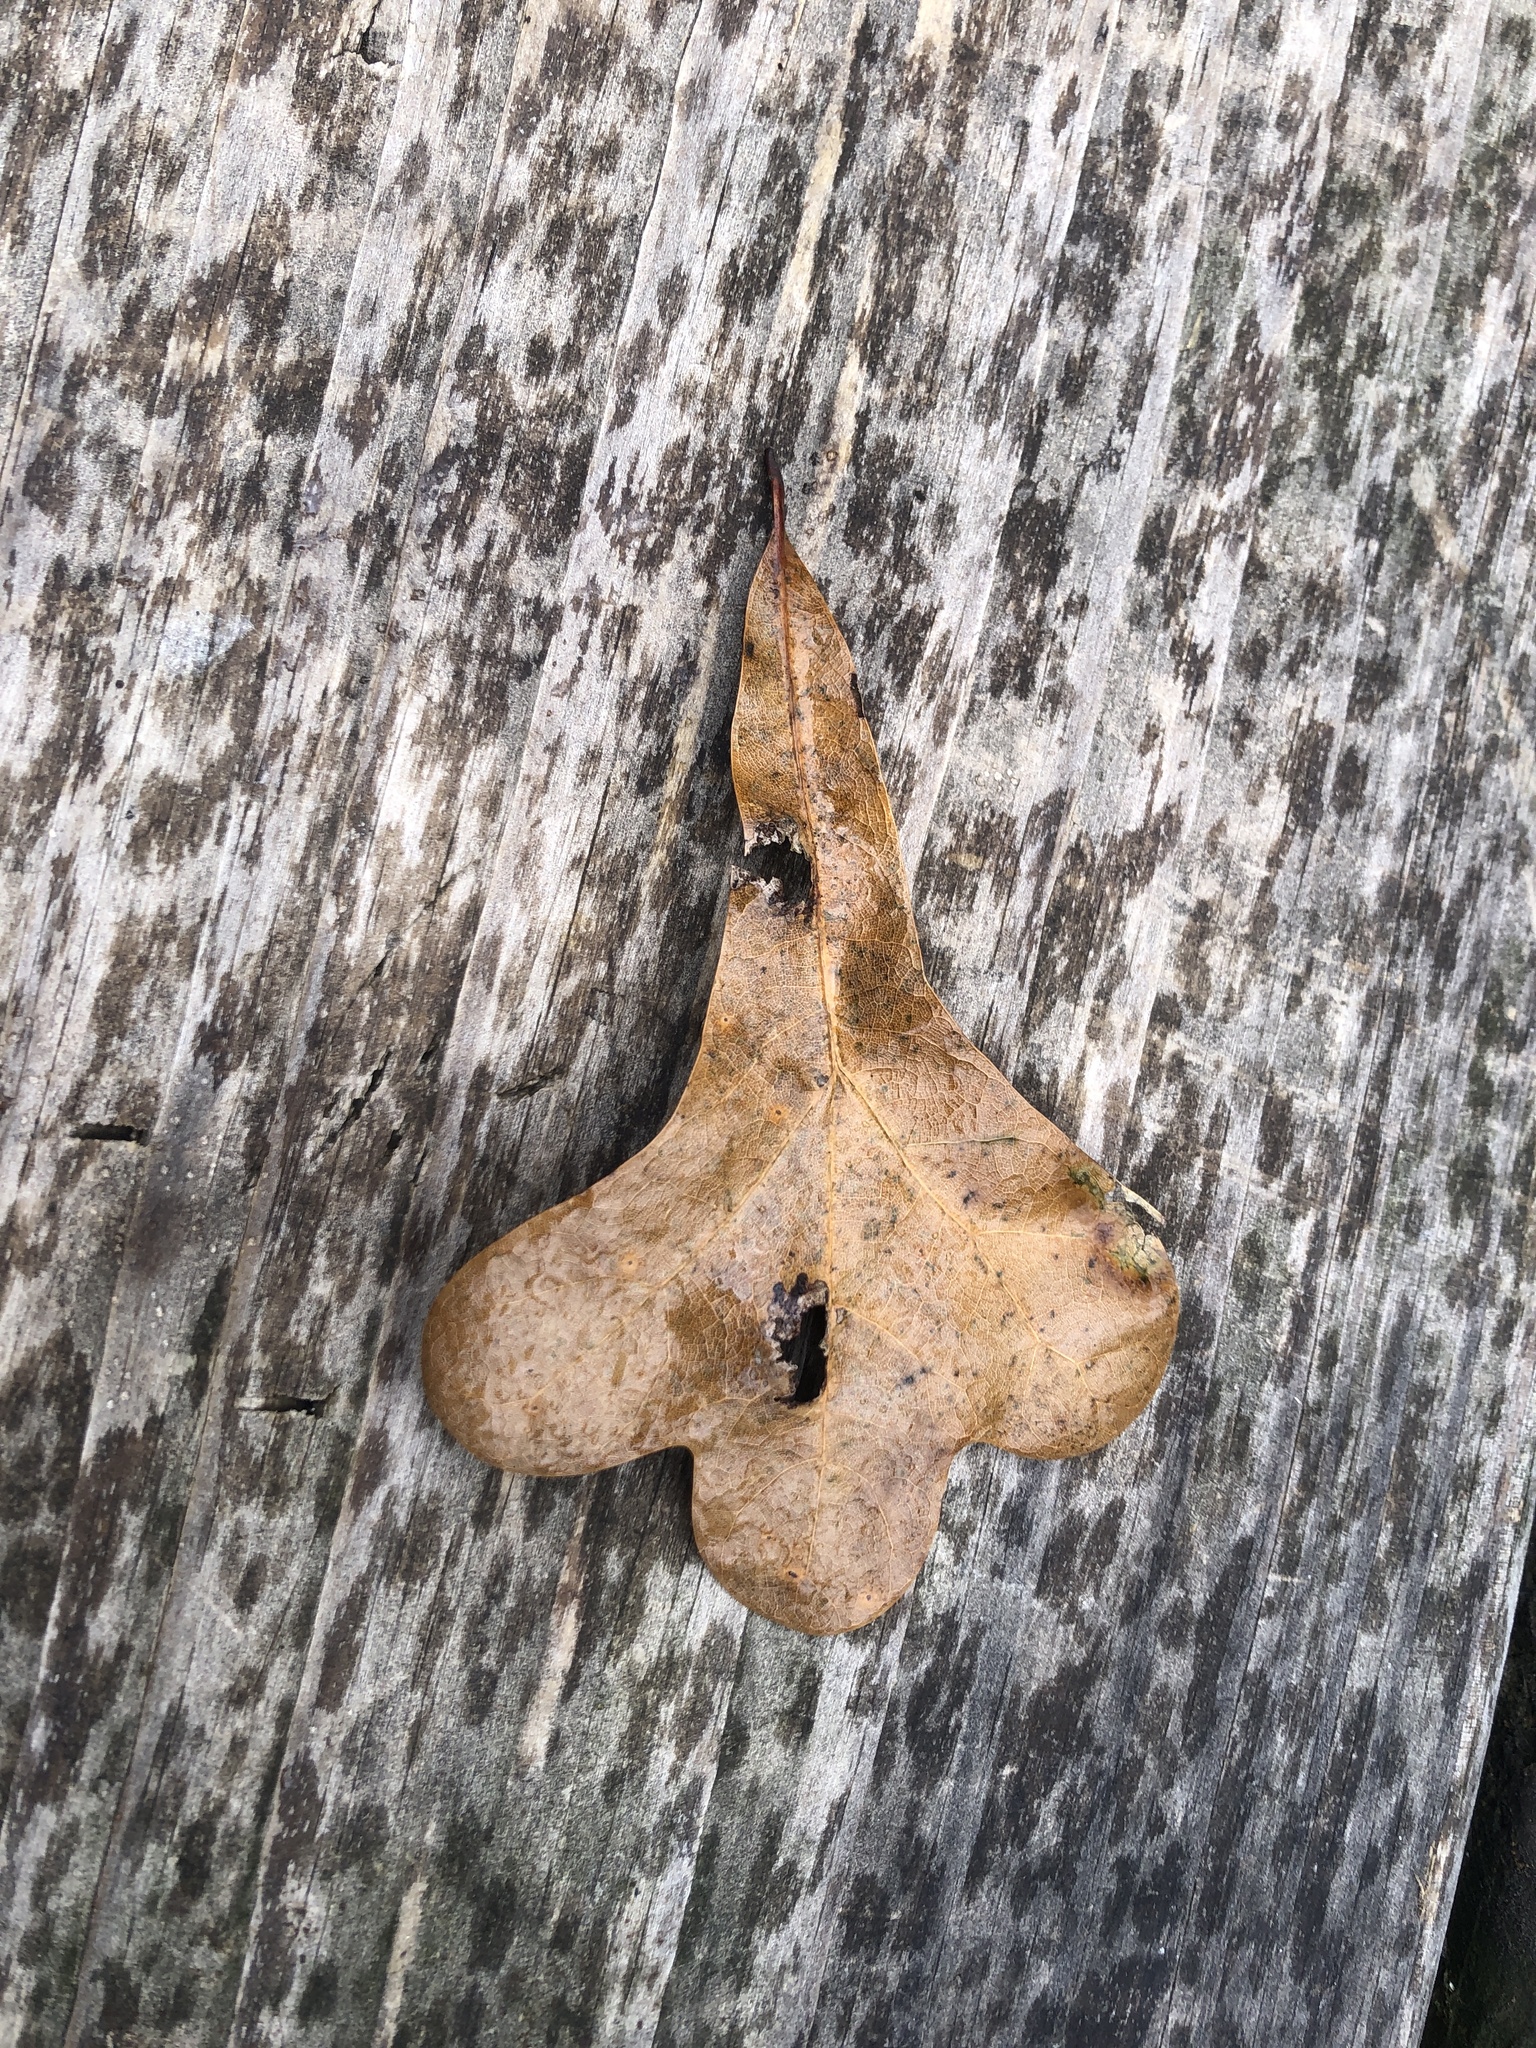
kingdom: Plantae
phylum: Tracheophyta
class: Magnoliopsida
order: Fagales
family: Fagaceae
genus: Quercus
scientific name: Quercus nigra
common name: Water oak
